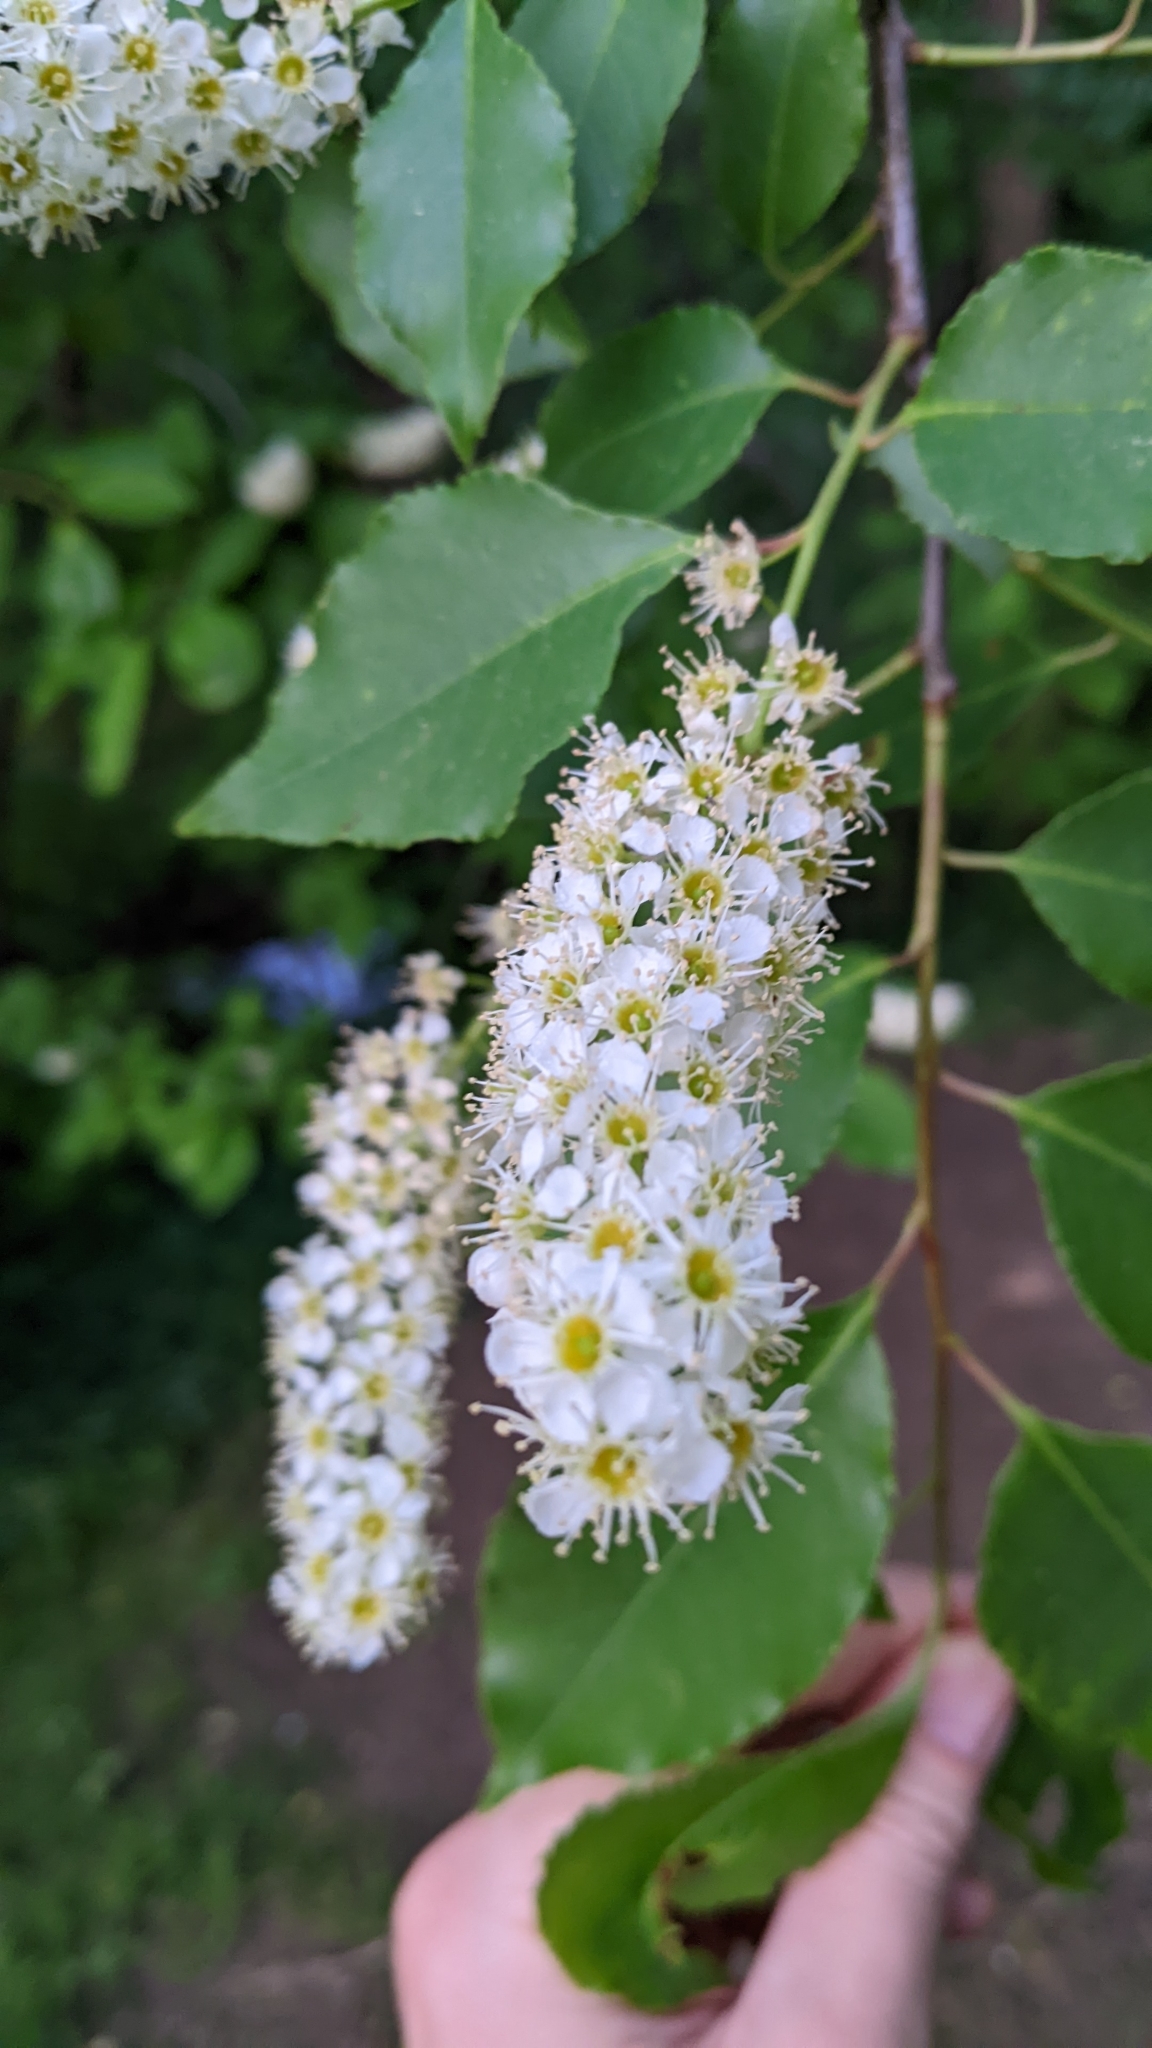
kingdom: Plantae
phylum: Tracheophyta
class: Magnoliopsida
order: Rosales
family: Rosaceae
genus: Prunus
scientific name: Prunus serotina
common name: Black cherry
